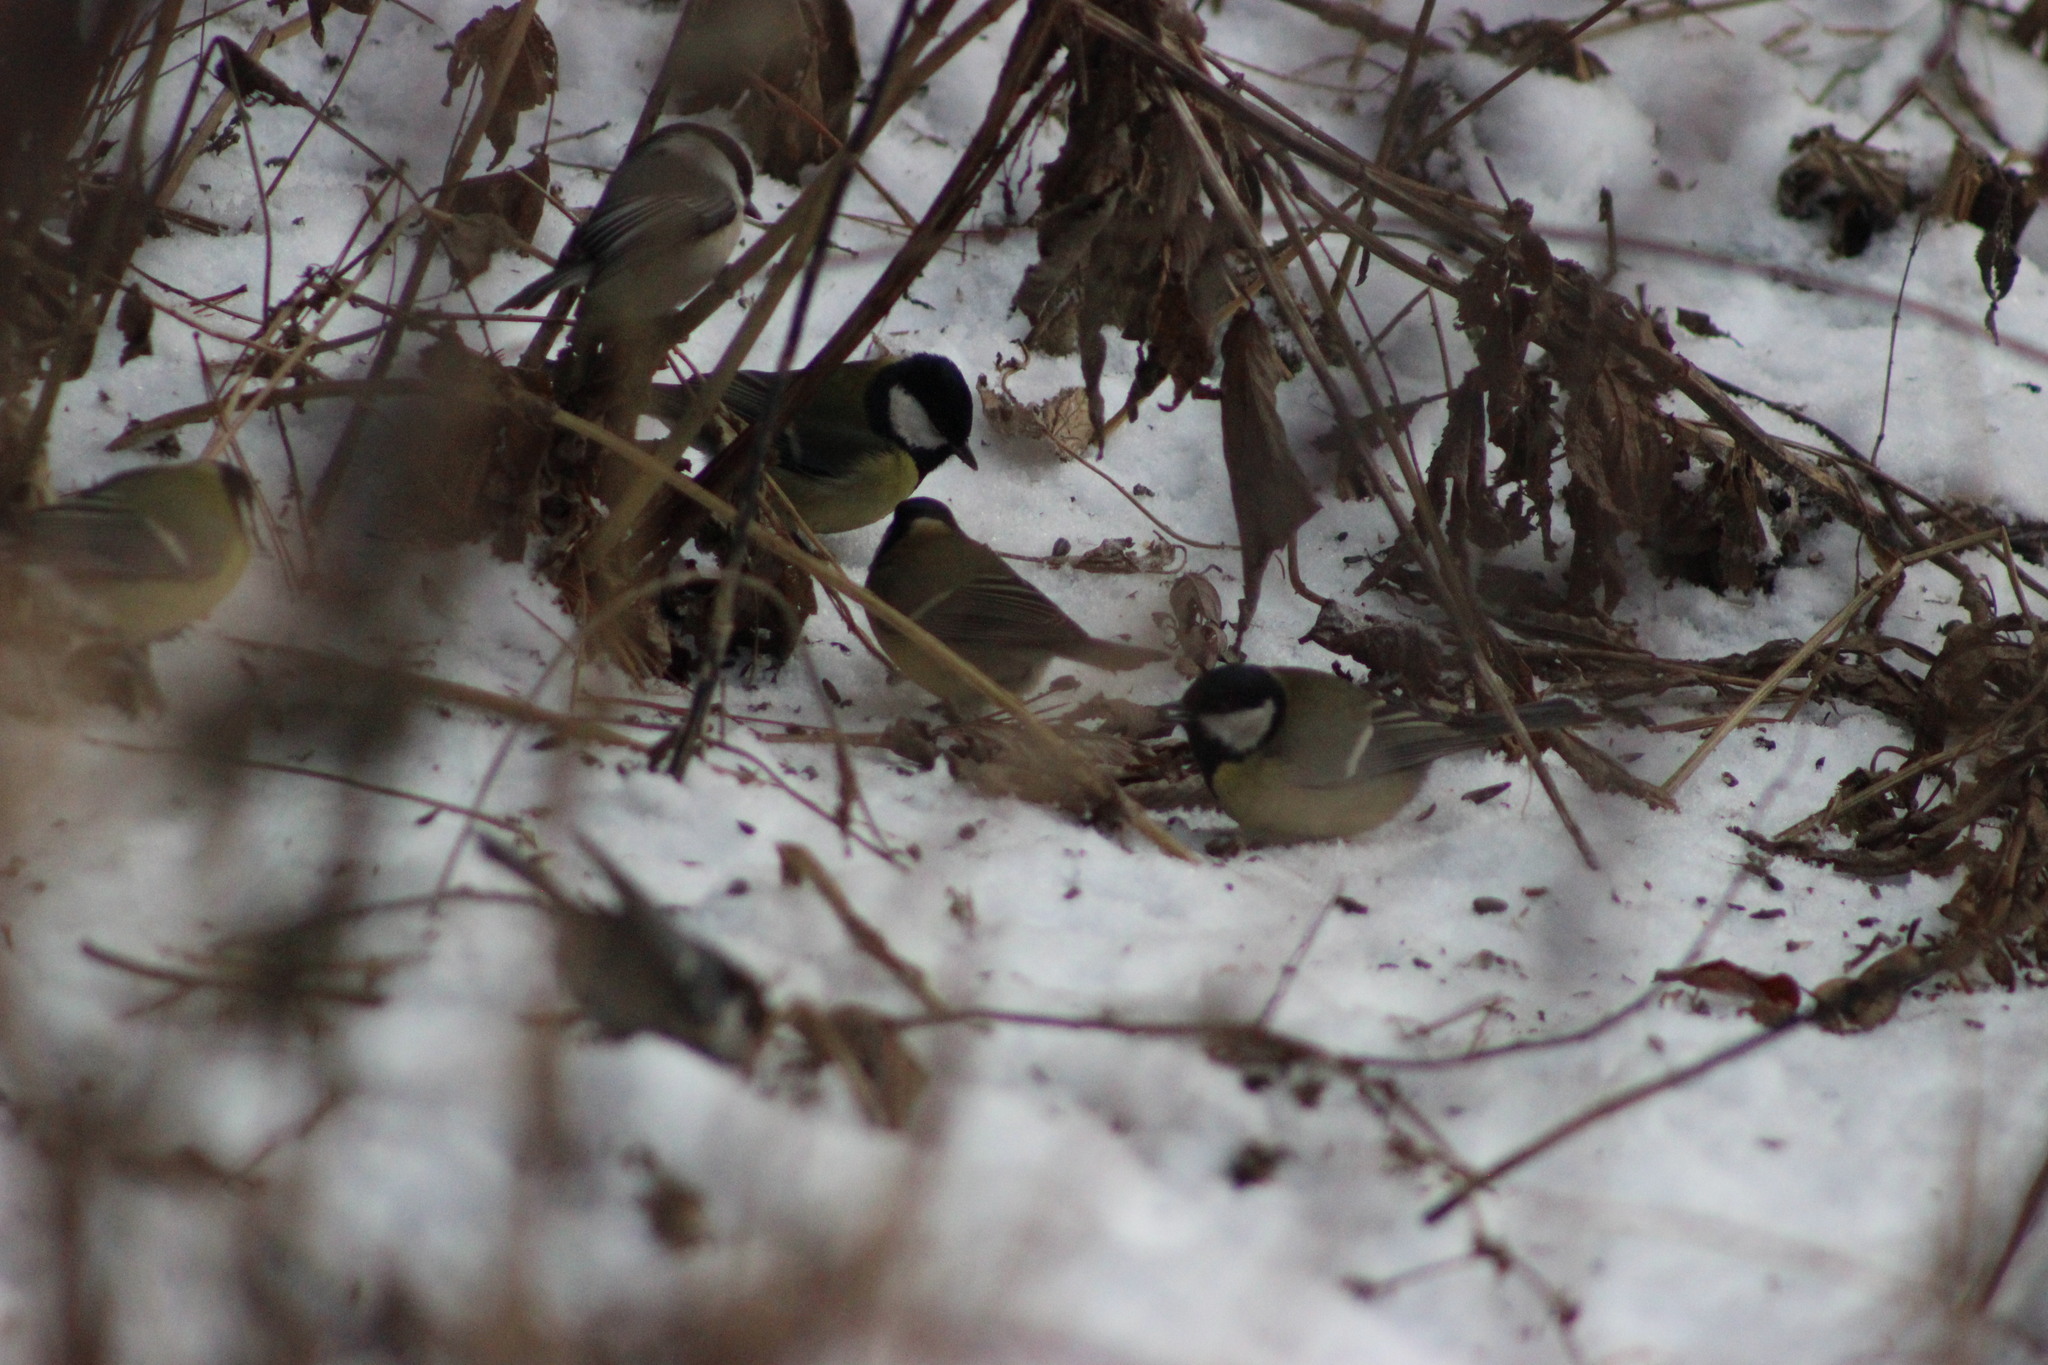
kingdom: Animalia
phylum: Chordata
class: Aves
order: Passeriformes
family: Paridae
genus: Parus
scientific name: Parus major
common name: Great tit
